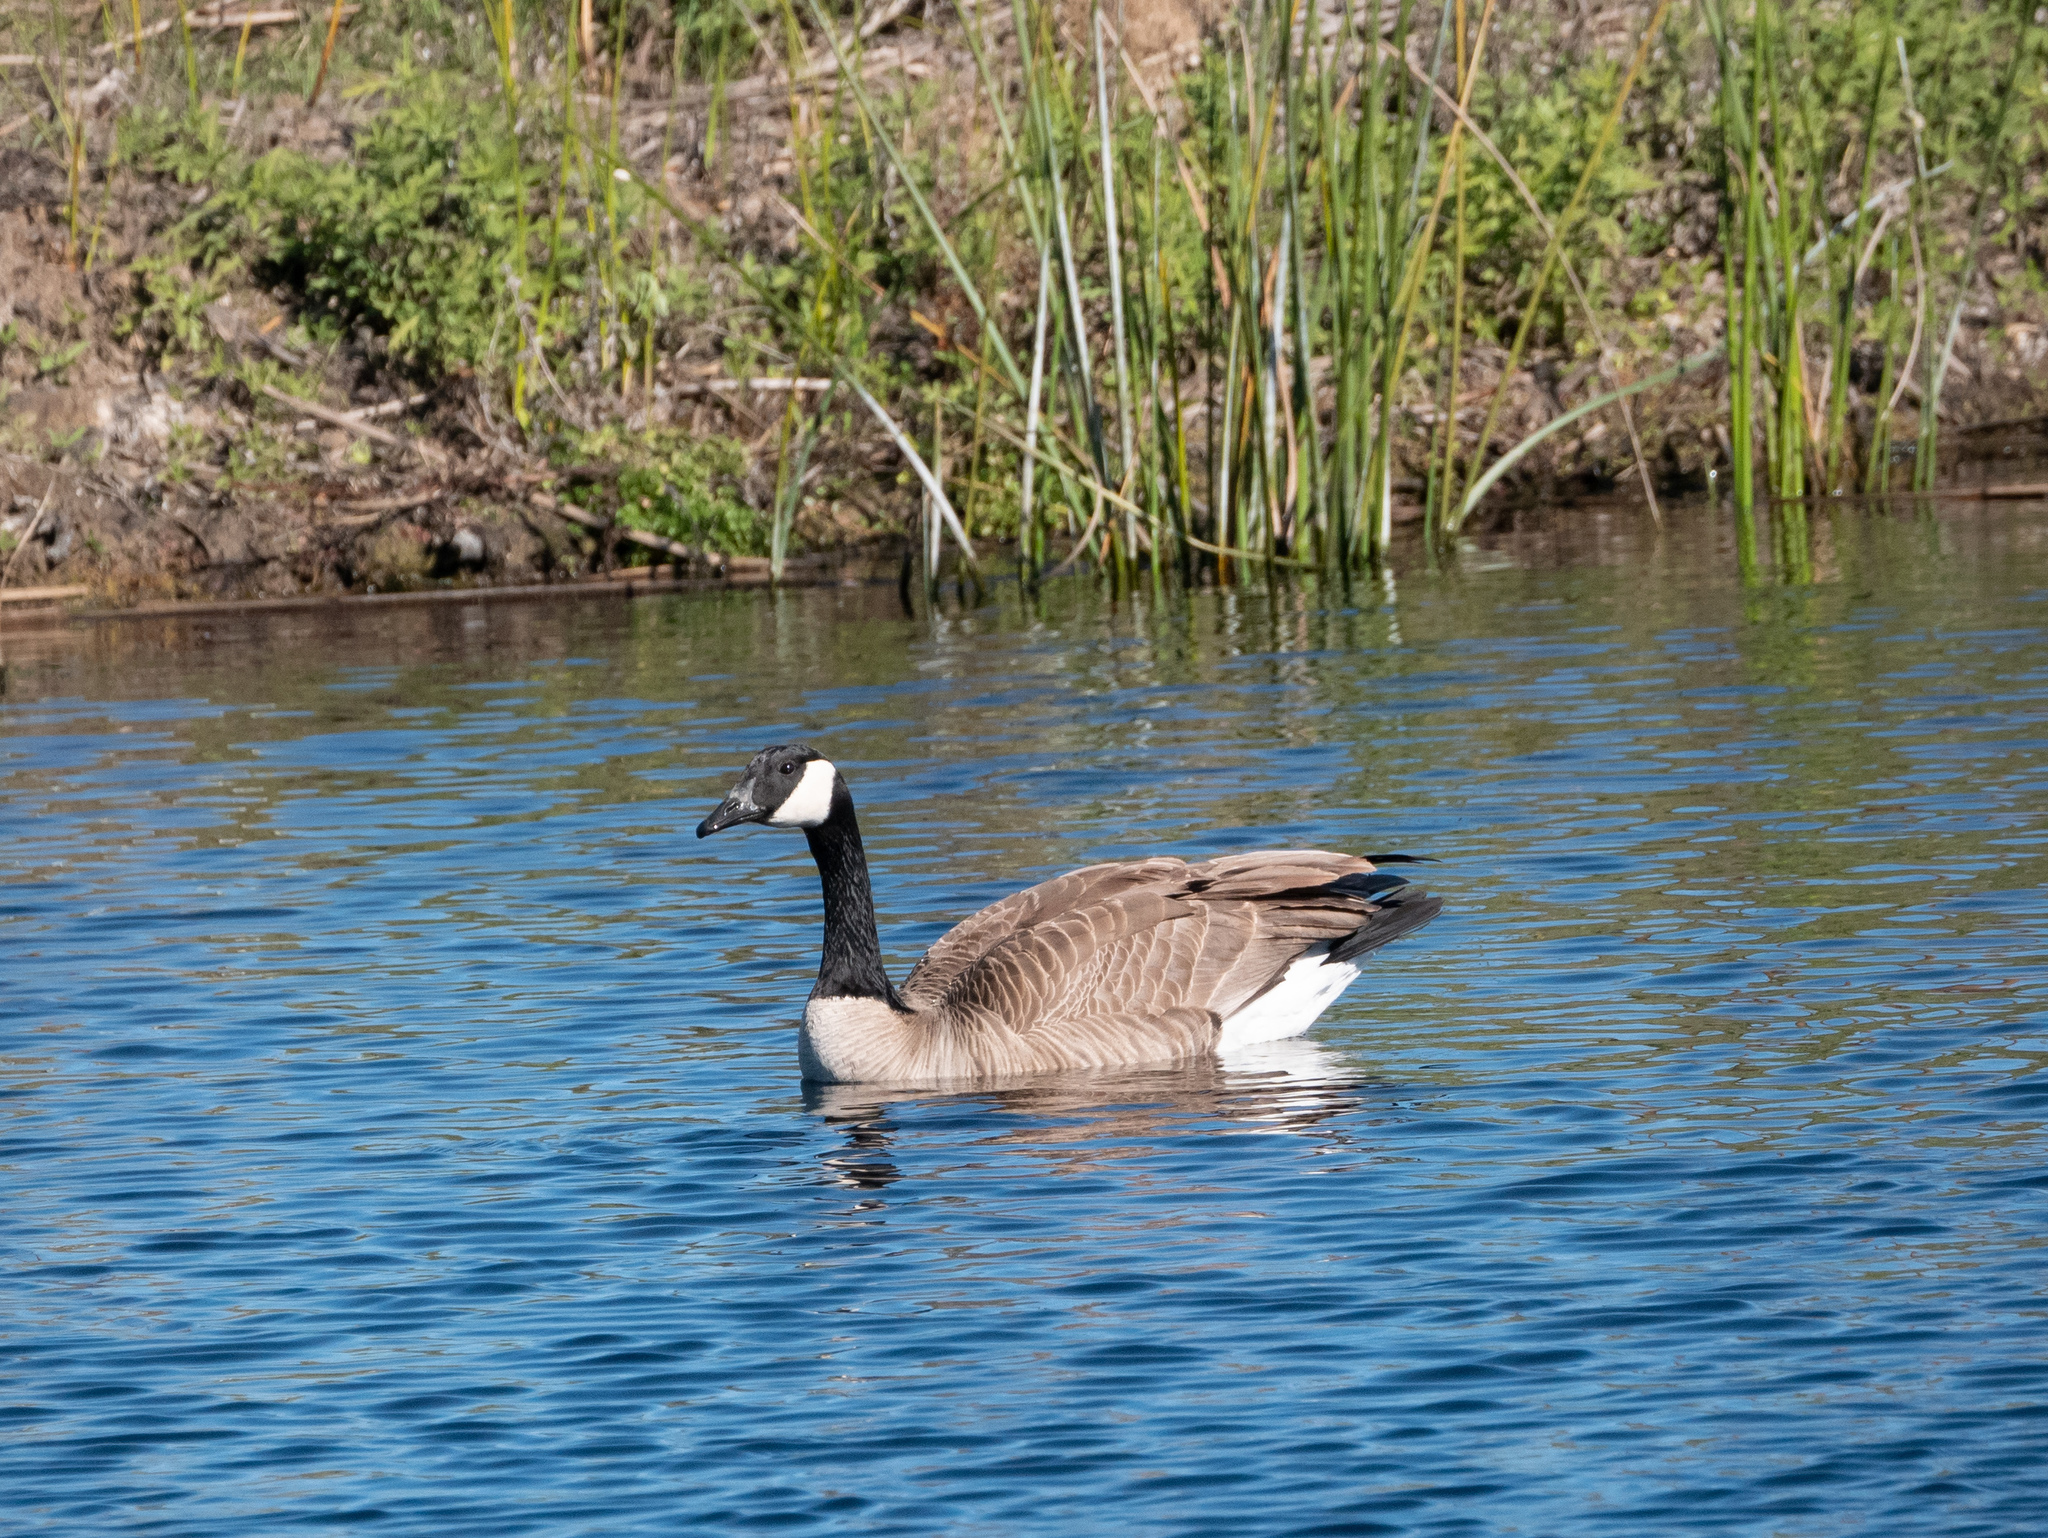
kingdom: Animalia
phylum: Chordata
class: Aves
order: Anseriformes
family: Anatidae
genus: Branta
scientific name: Branta canadensis
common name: Canada goose
